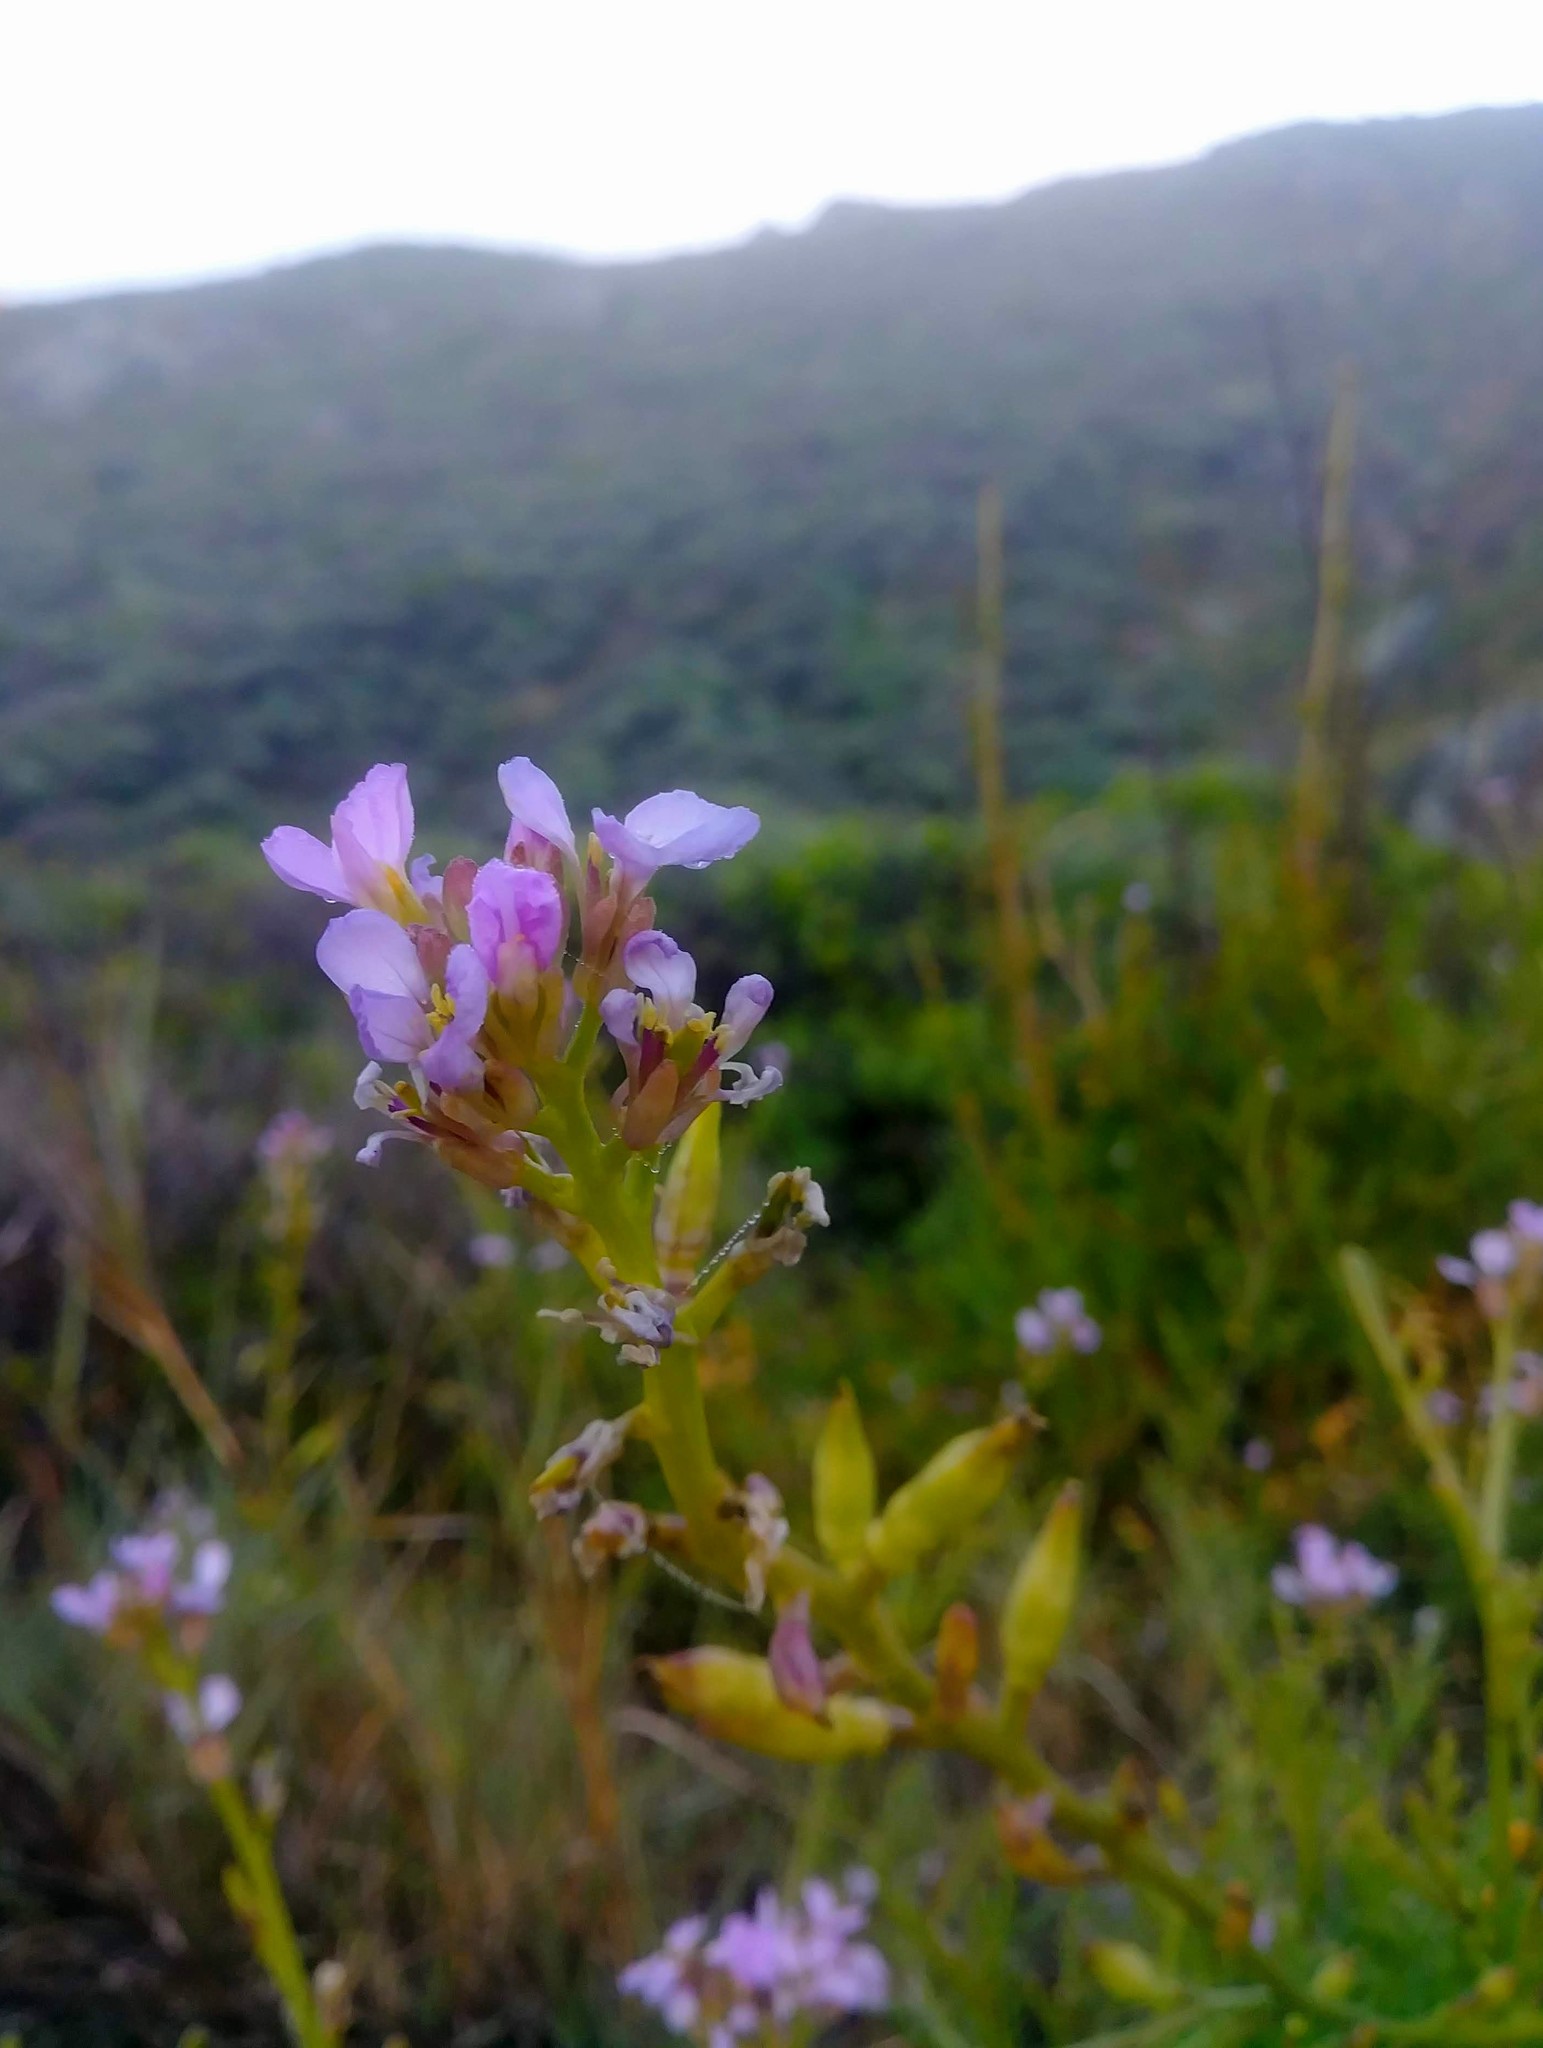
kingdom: Plantae
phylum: Tracheophyta
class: Magnoliopsida
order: Brassicales
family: Brassicaceae
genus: Cakile
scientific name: Cakile maritima
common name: Sea rocket
